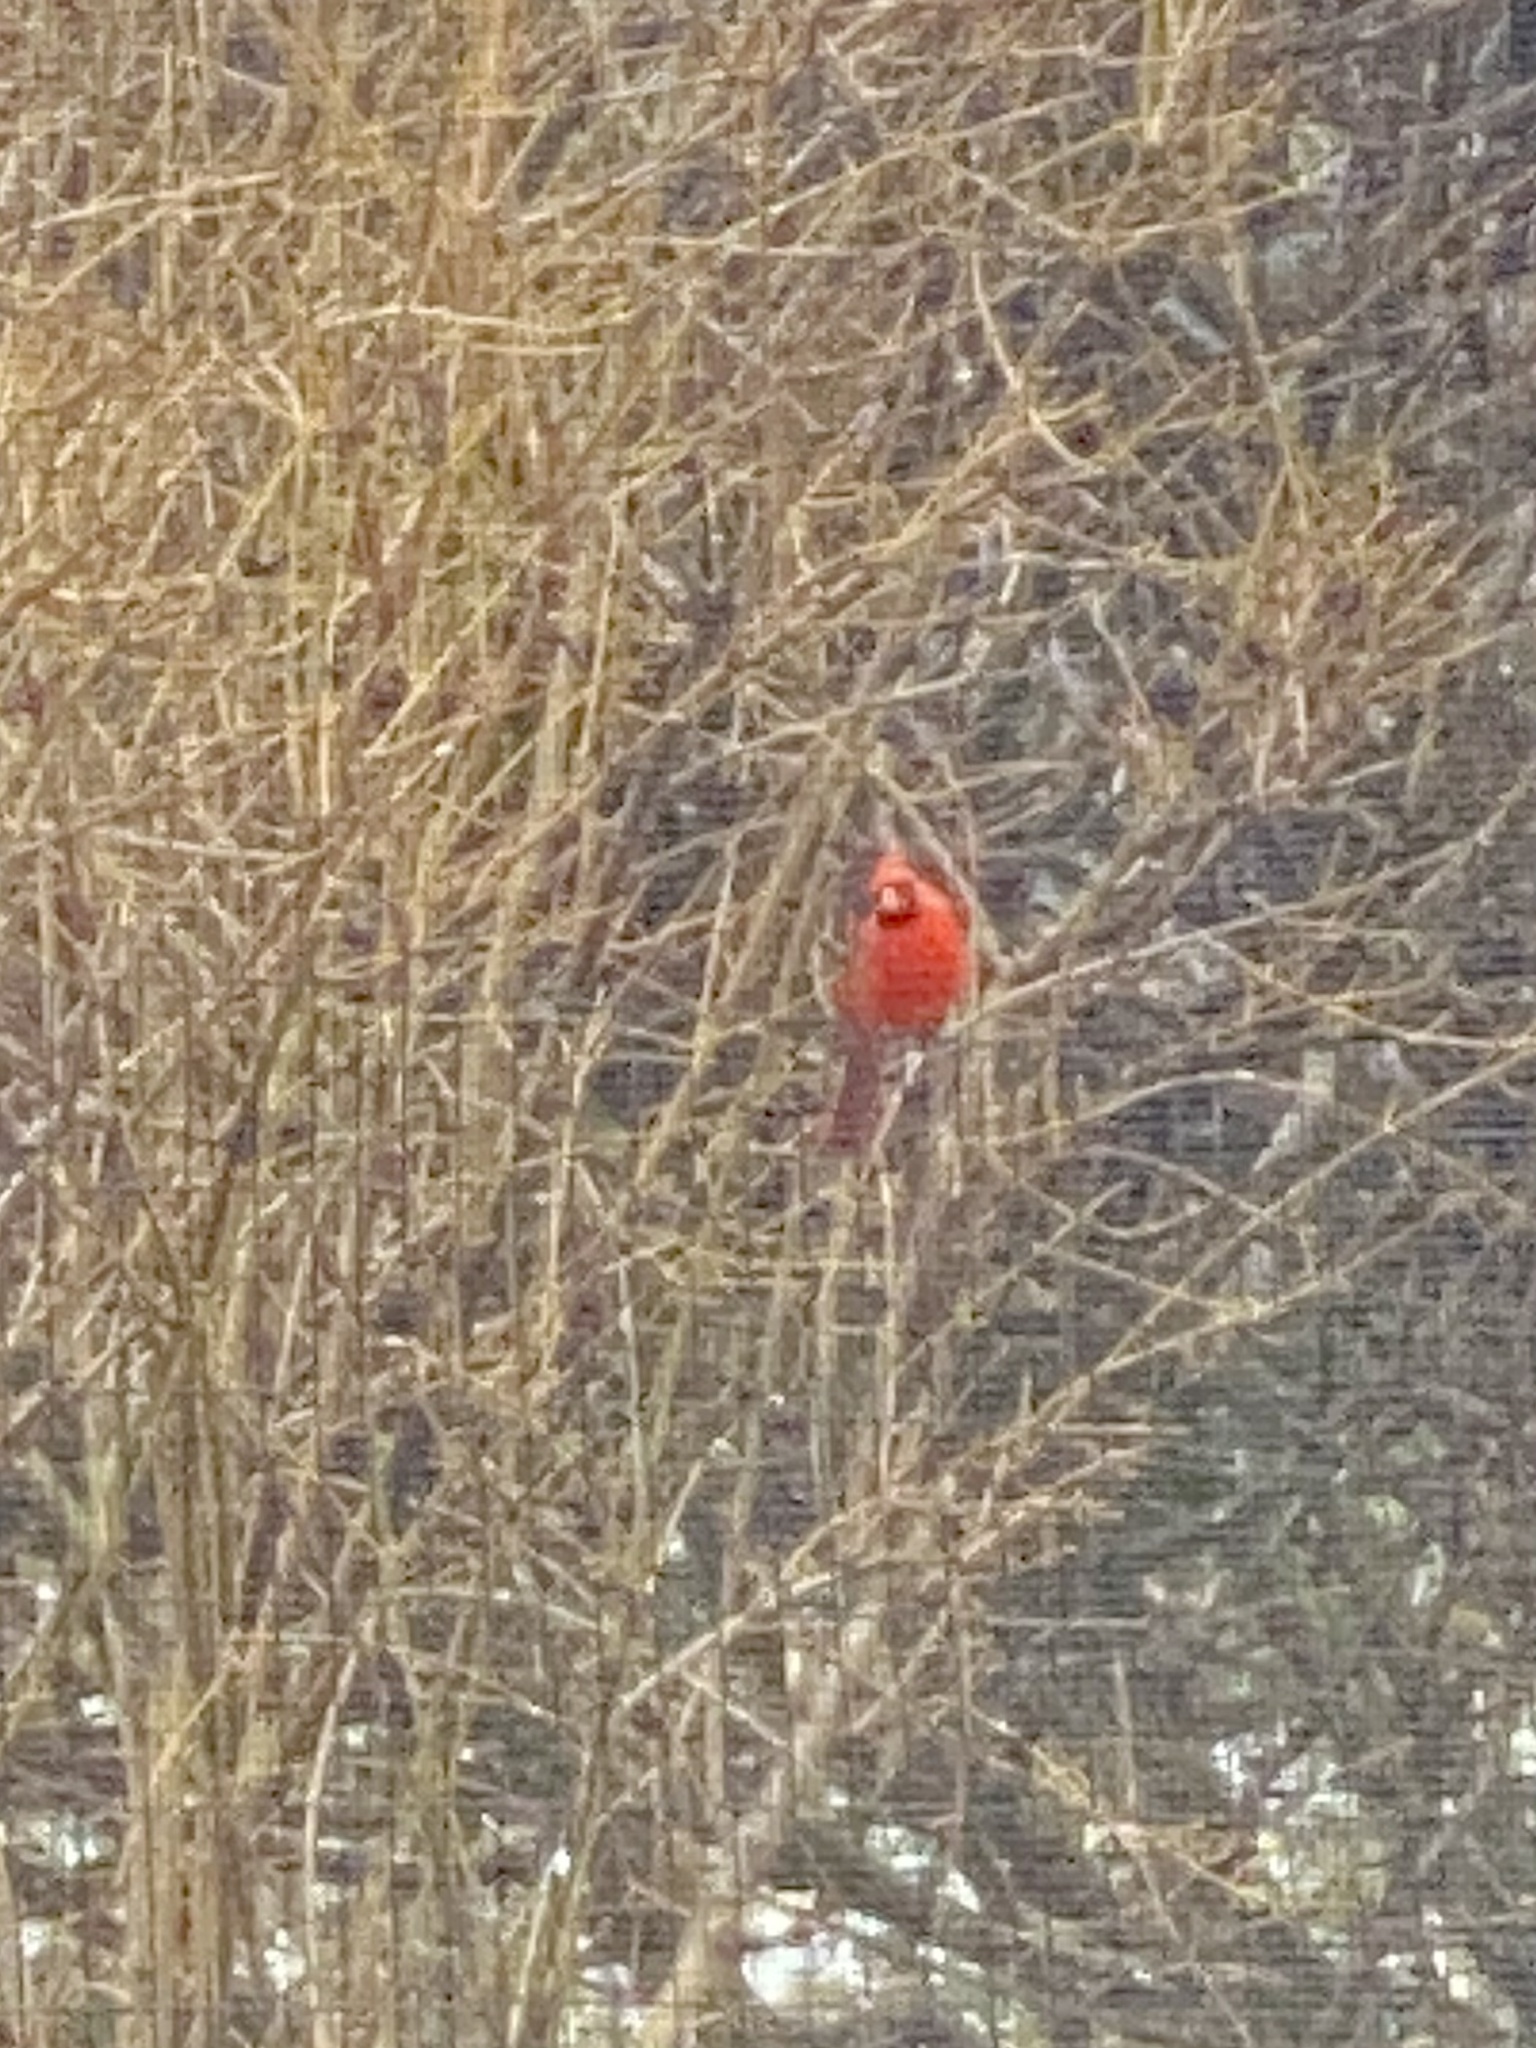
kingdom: Animalia
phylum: Chordata
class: Aves
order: Passeriformes
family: Cardinalidae
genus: Cardinalis
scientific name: Cardinalis cardinalis
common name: Northern cardinal
